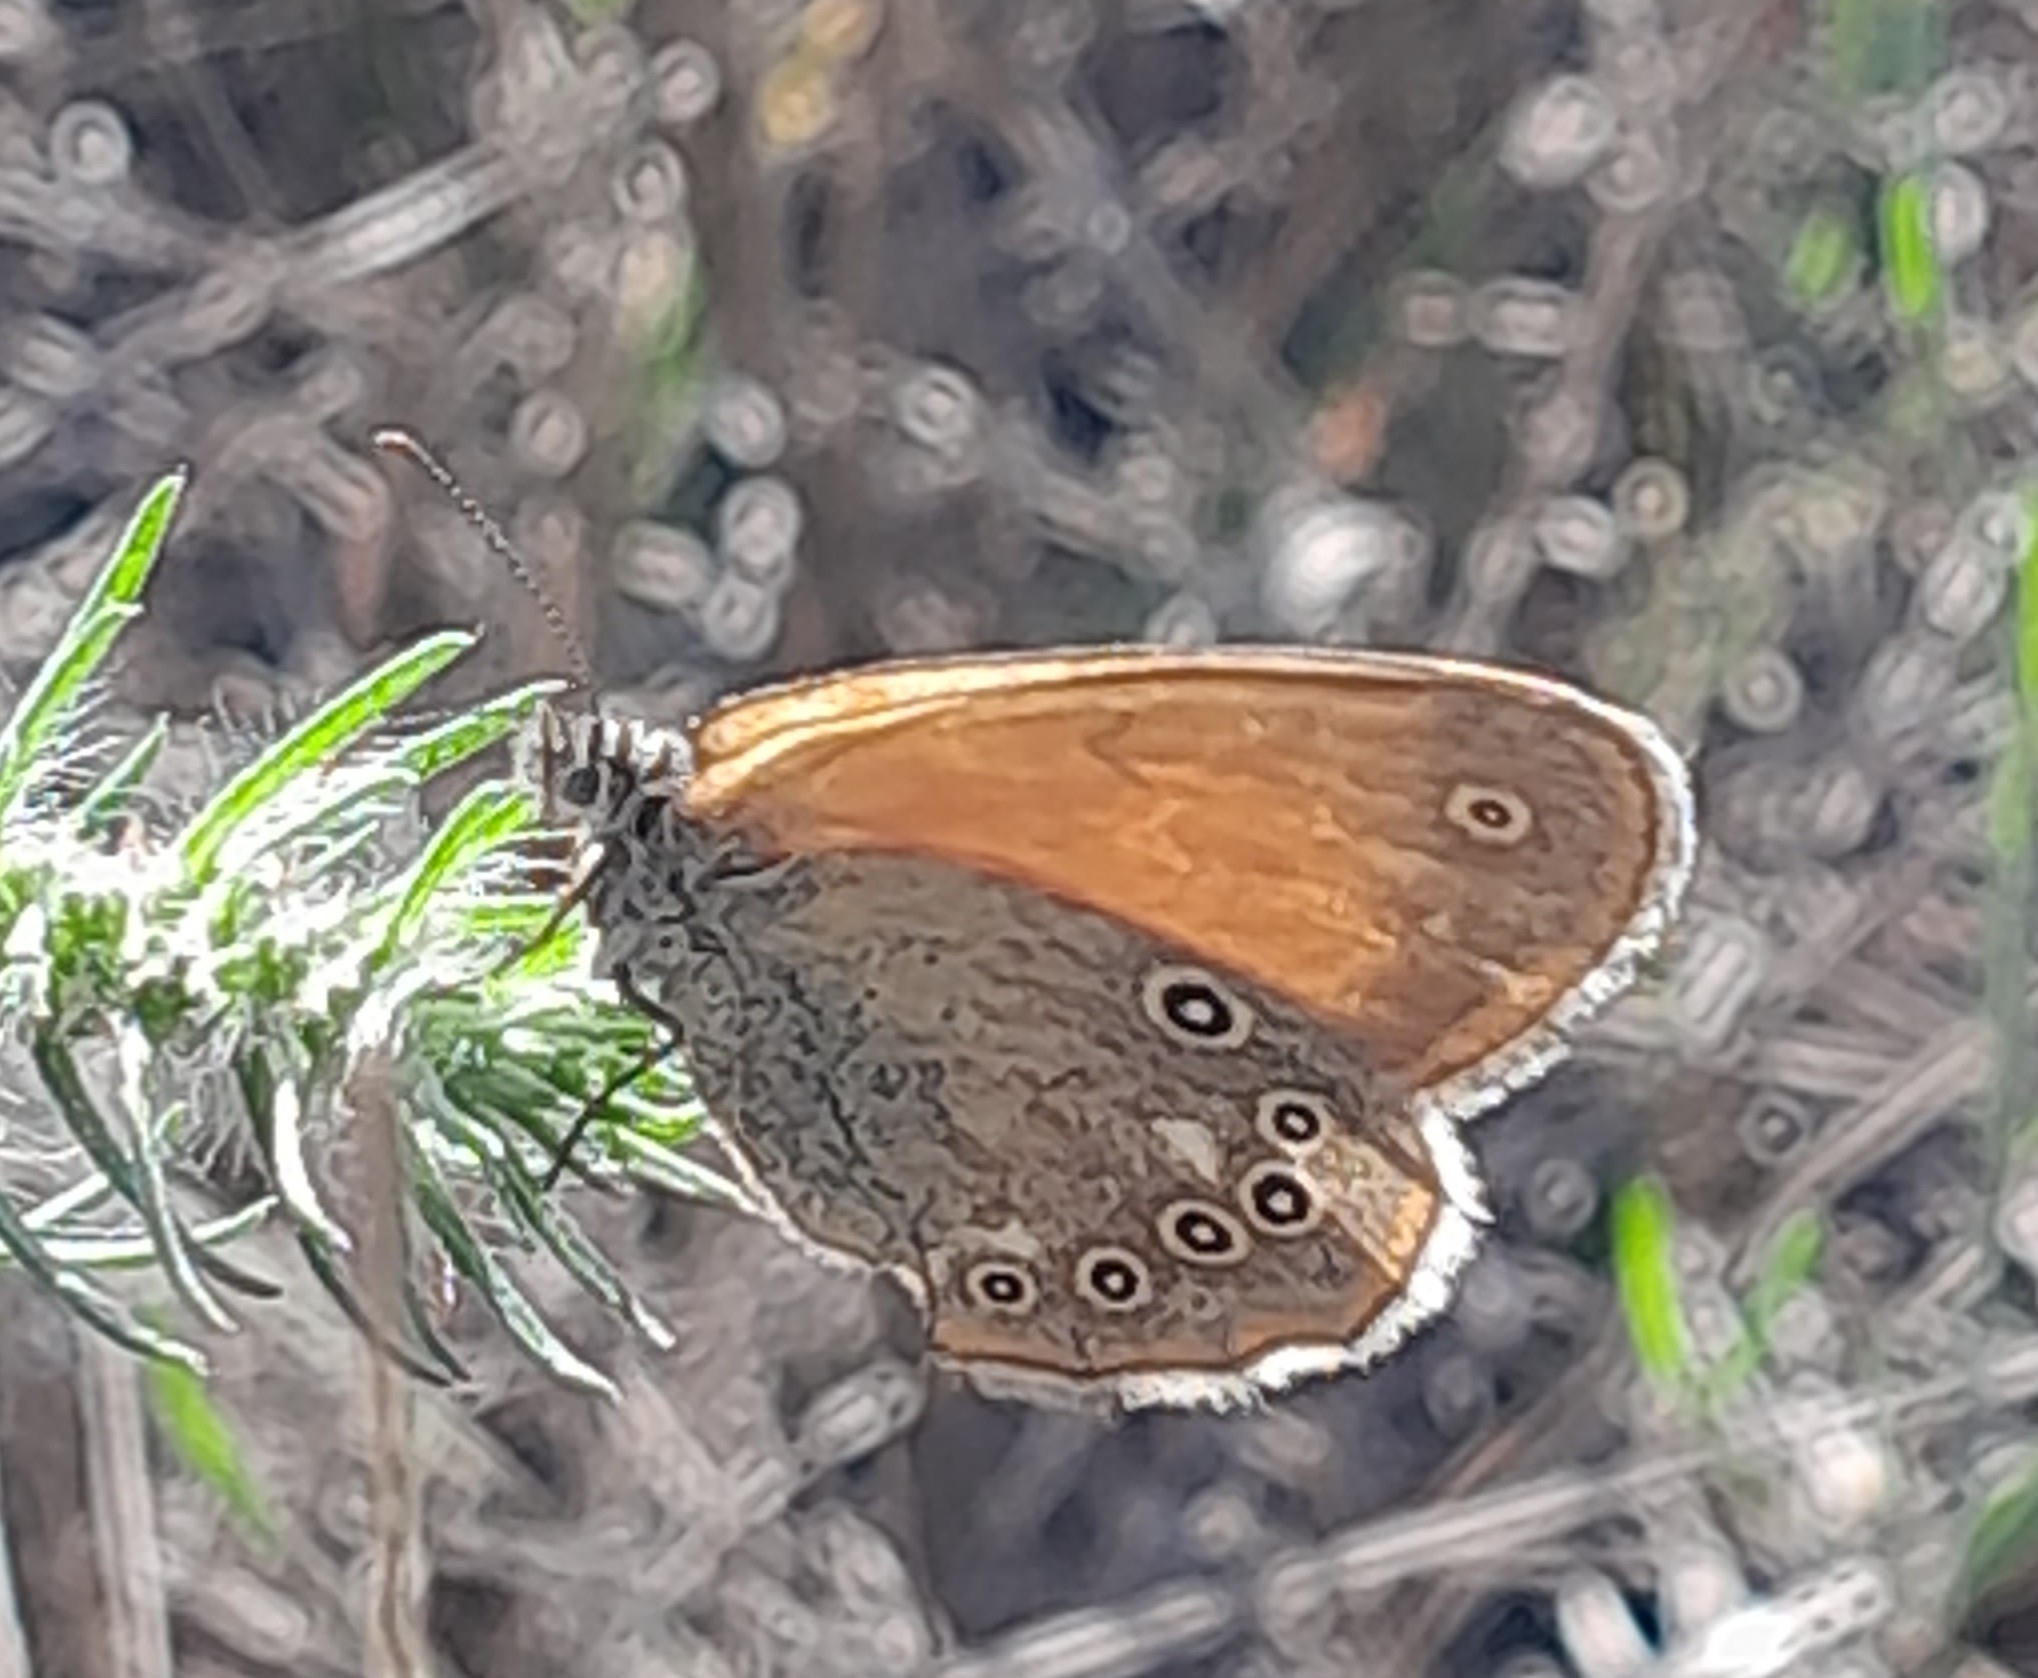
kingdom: Animalia
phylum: Arthropoda
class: Insecta
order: Lepidoptera
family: Nymphalidae
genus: Coenonympha
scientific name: Coenonympha iphis
